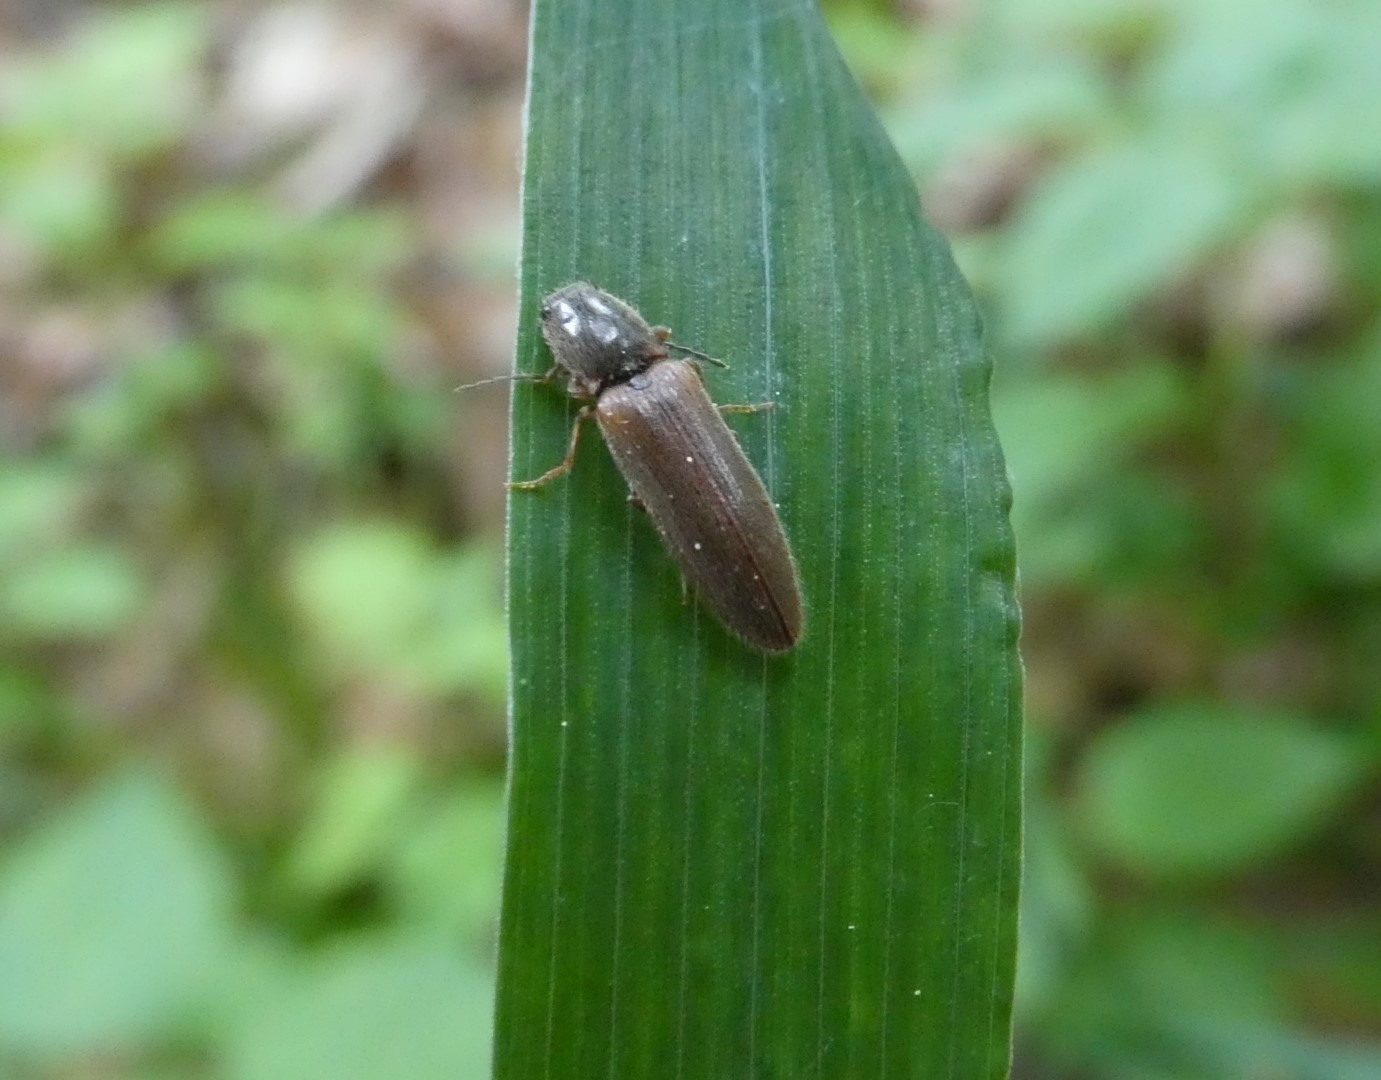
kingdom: Animalia
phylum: Arthropoda
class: Insecta
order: Coleoptera
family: Elateridae
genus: Athous
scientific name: Athous subfuscus
